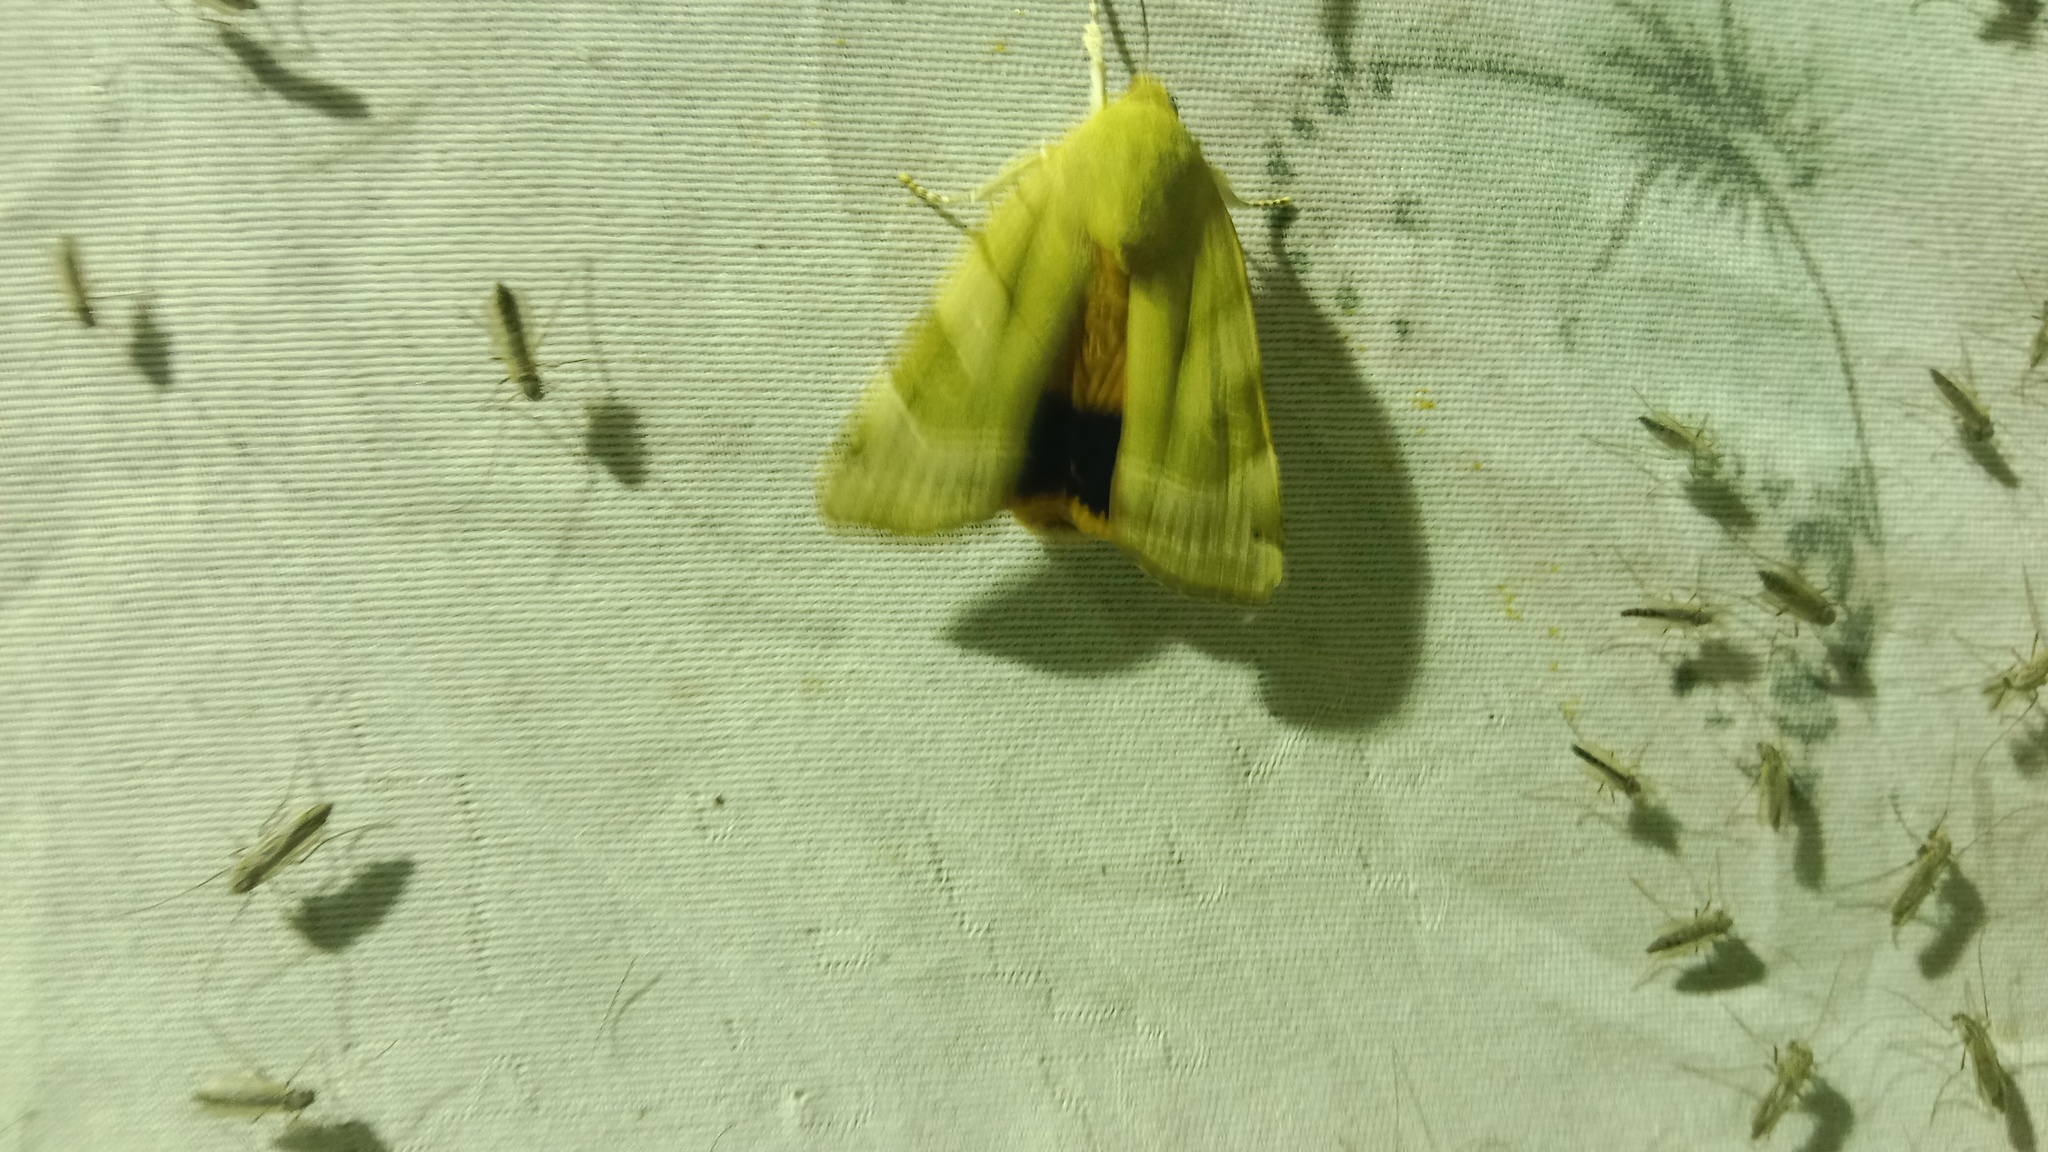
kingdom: Animalia
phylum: Arthropoda
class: Insecta
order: Lepidoptera
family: Noctuidae
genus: Noctua
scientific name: Noctua fimbriata
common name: Broad-bordered yellow underwing
